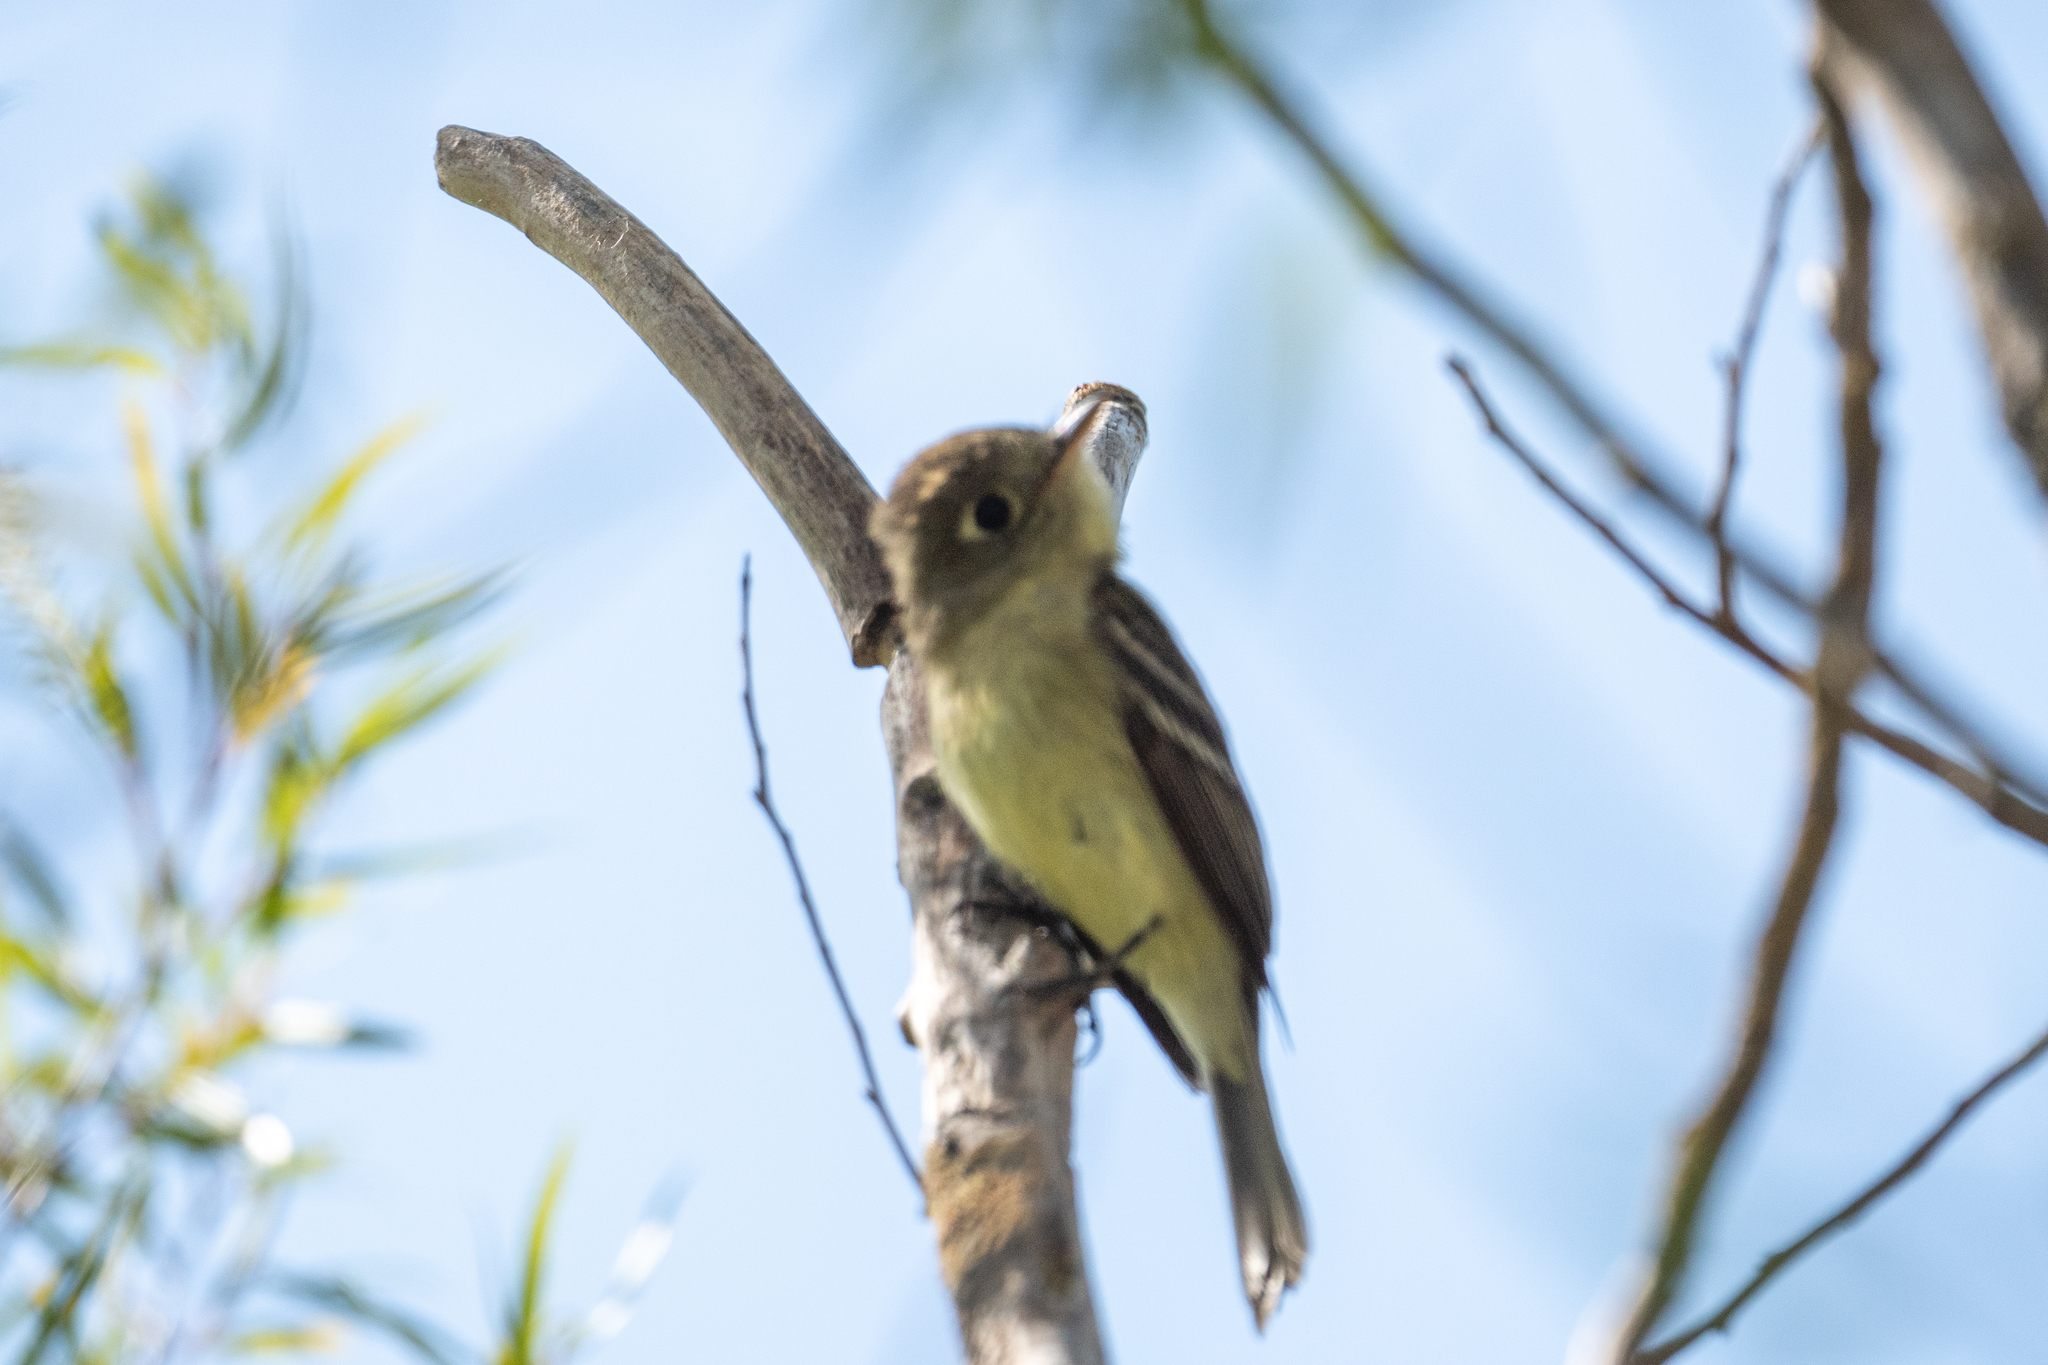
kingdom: Animalia
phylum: Chordata
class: Aves
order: Passeriformes
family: Tyrannidae
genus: Empidonax
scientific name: Empidonax difficilis
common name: Pacific-slope flycatcher
